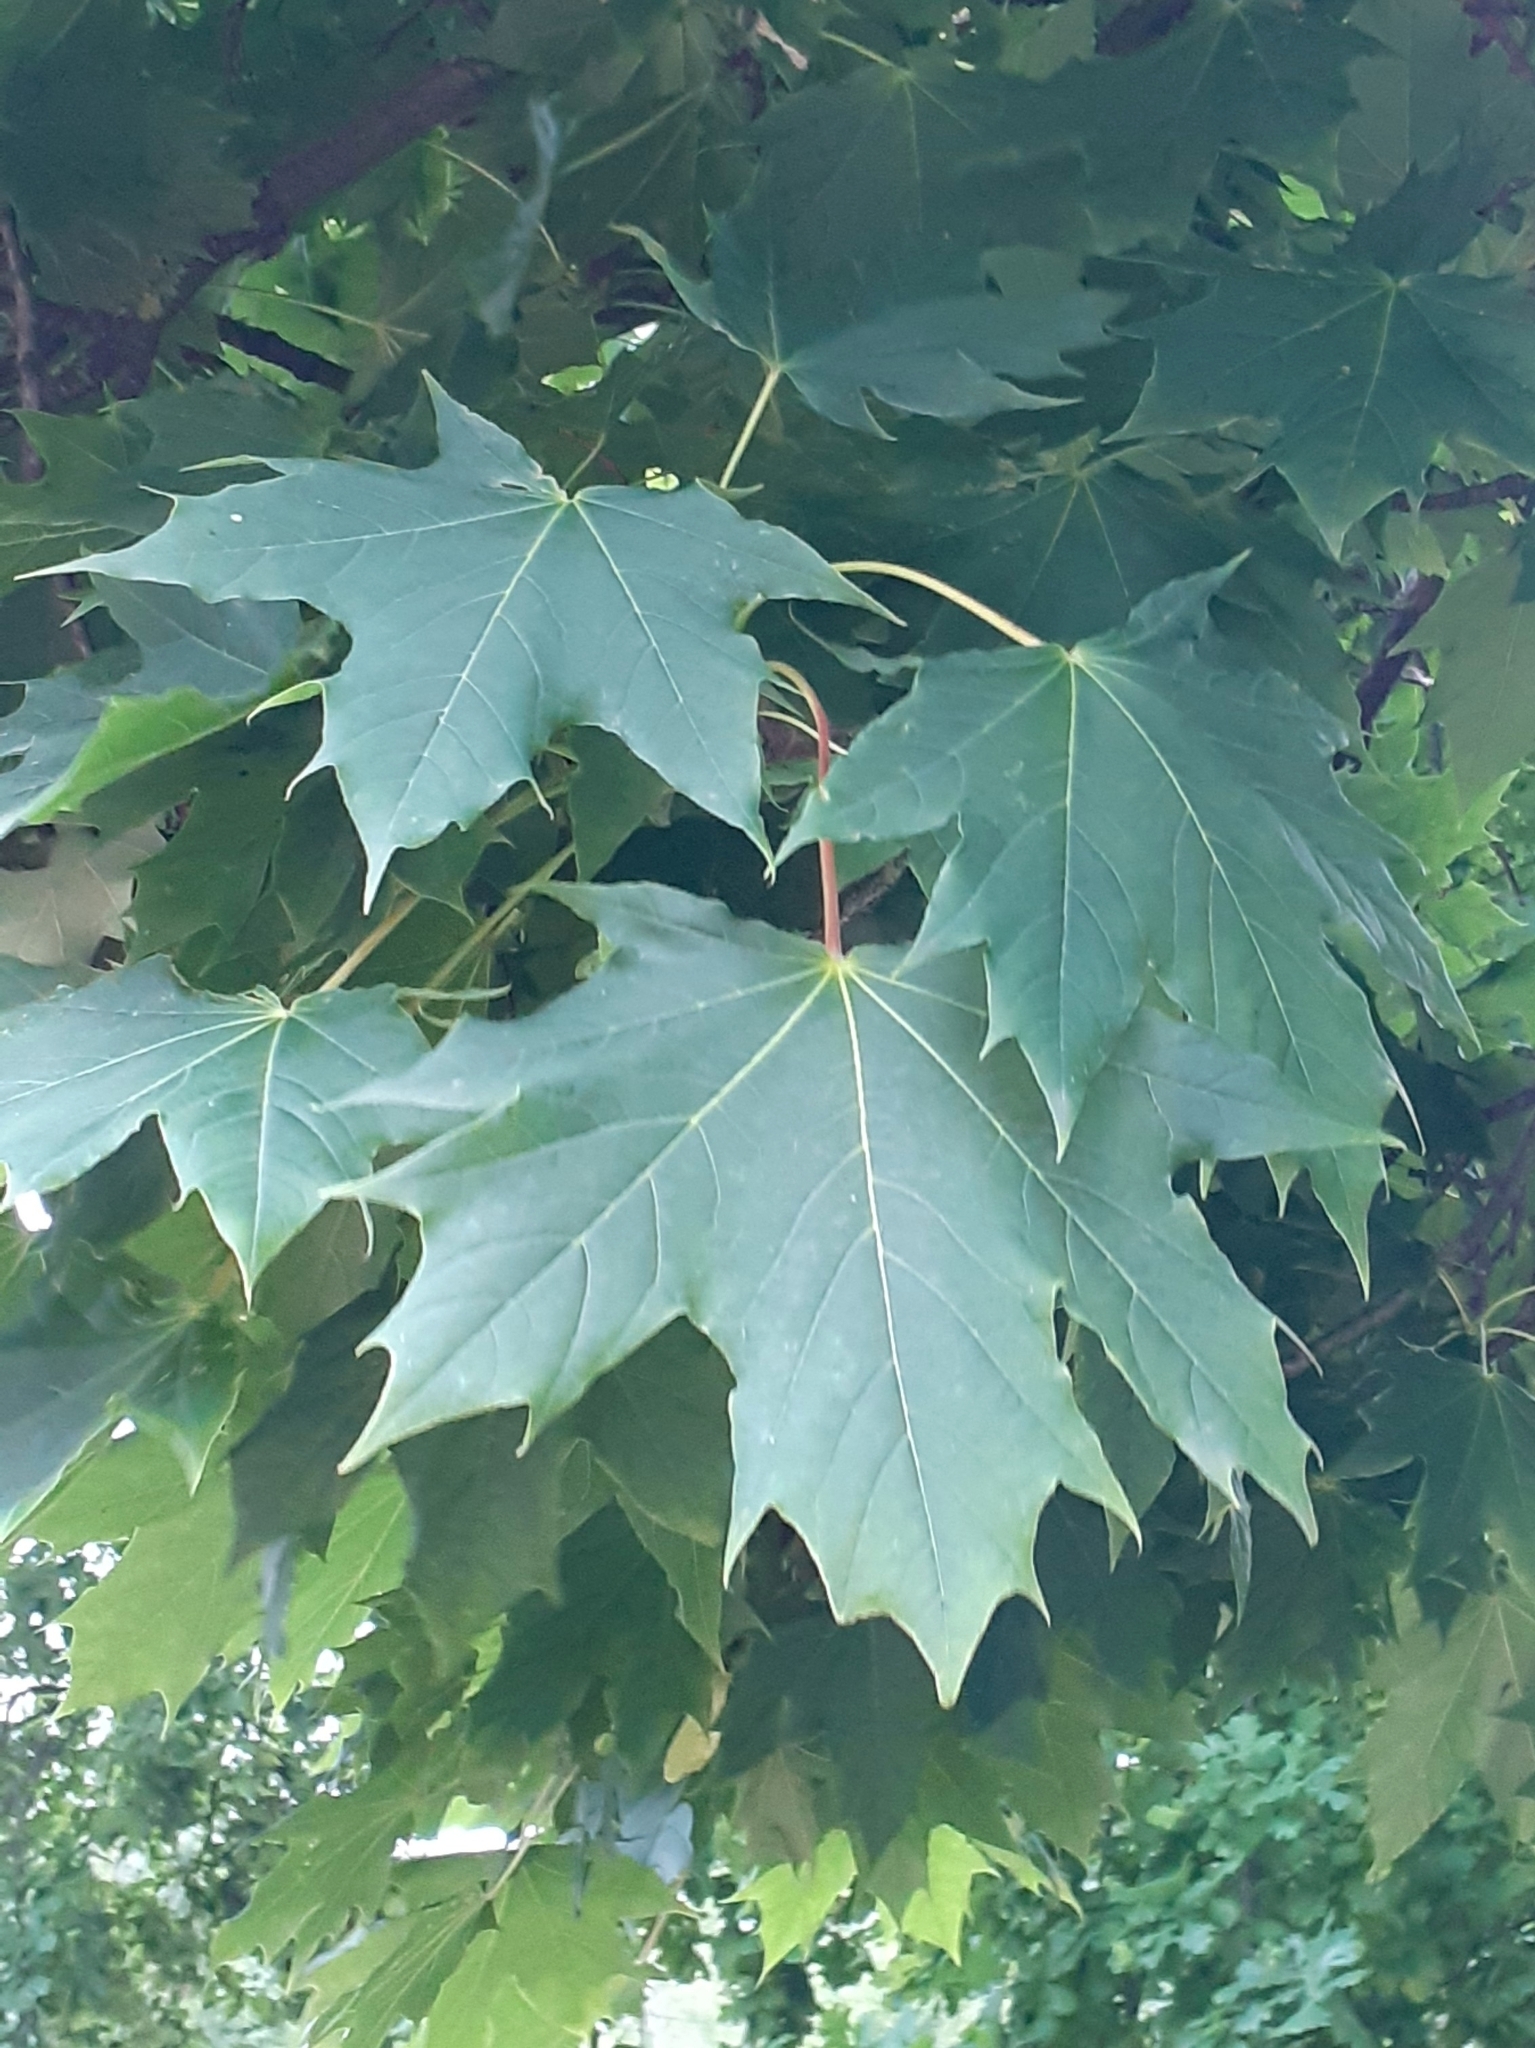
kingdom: Plantae
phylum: Tracheophyta
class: Magnoliopsida
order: Sapindales
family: Sapindaceae
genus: Acer
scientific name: Acer platanoides
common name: Norway maple
